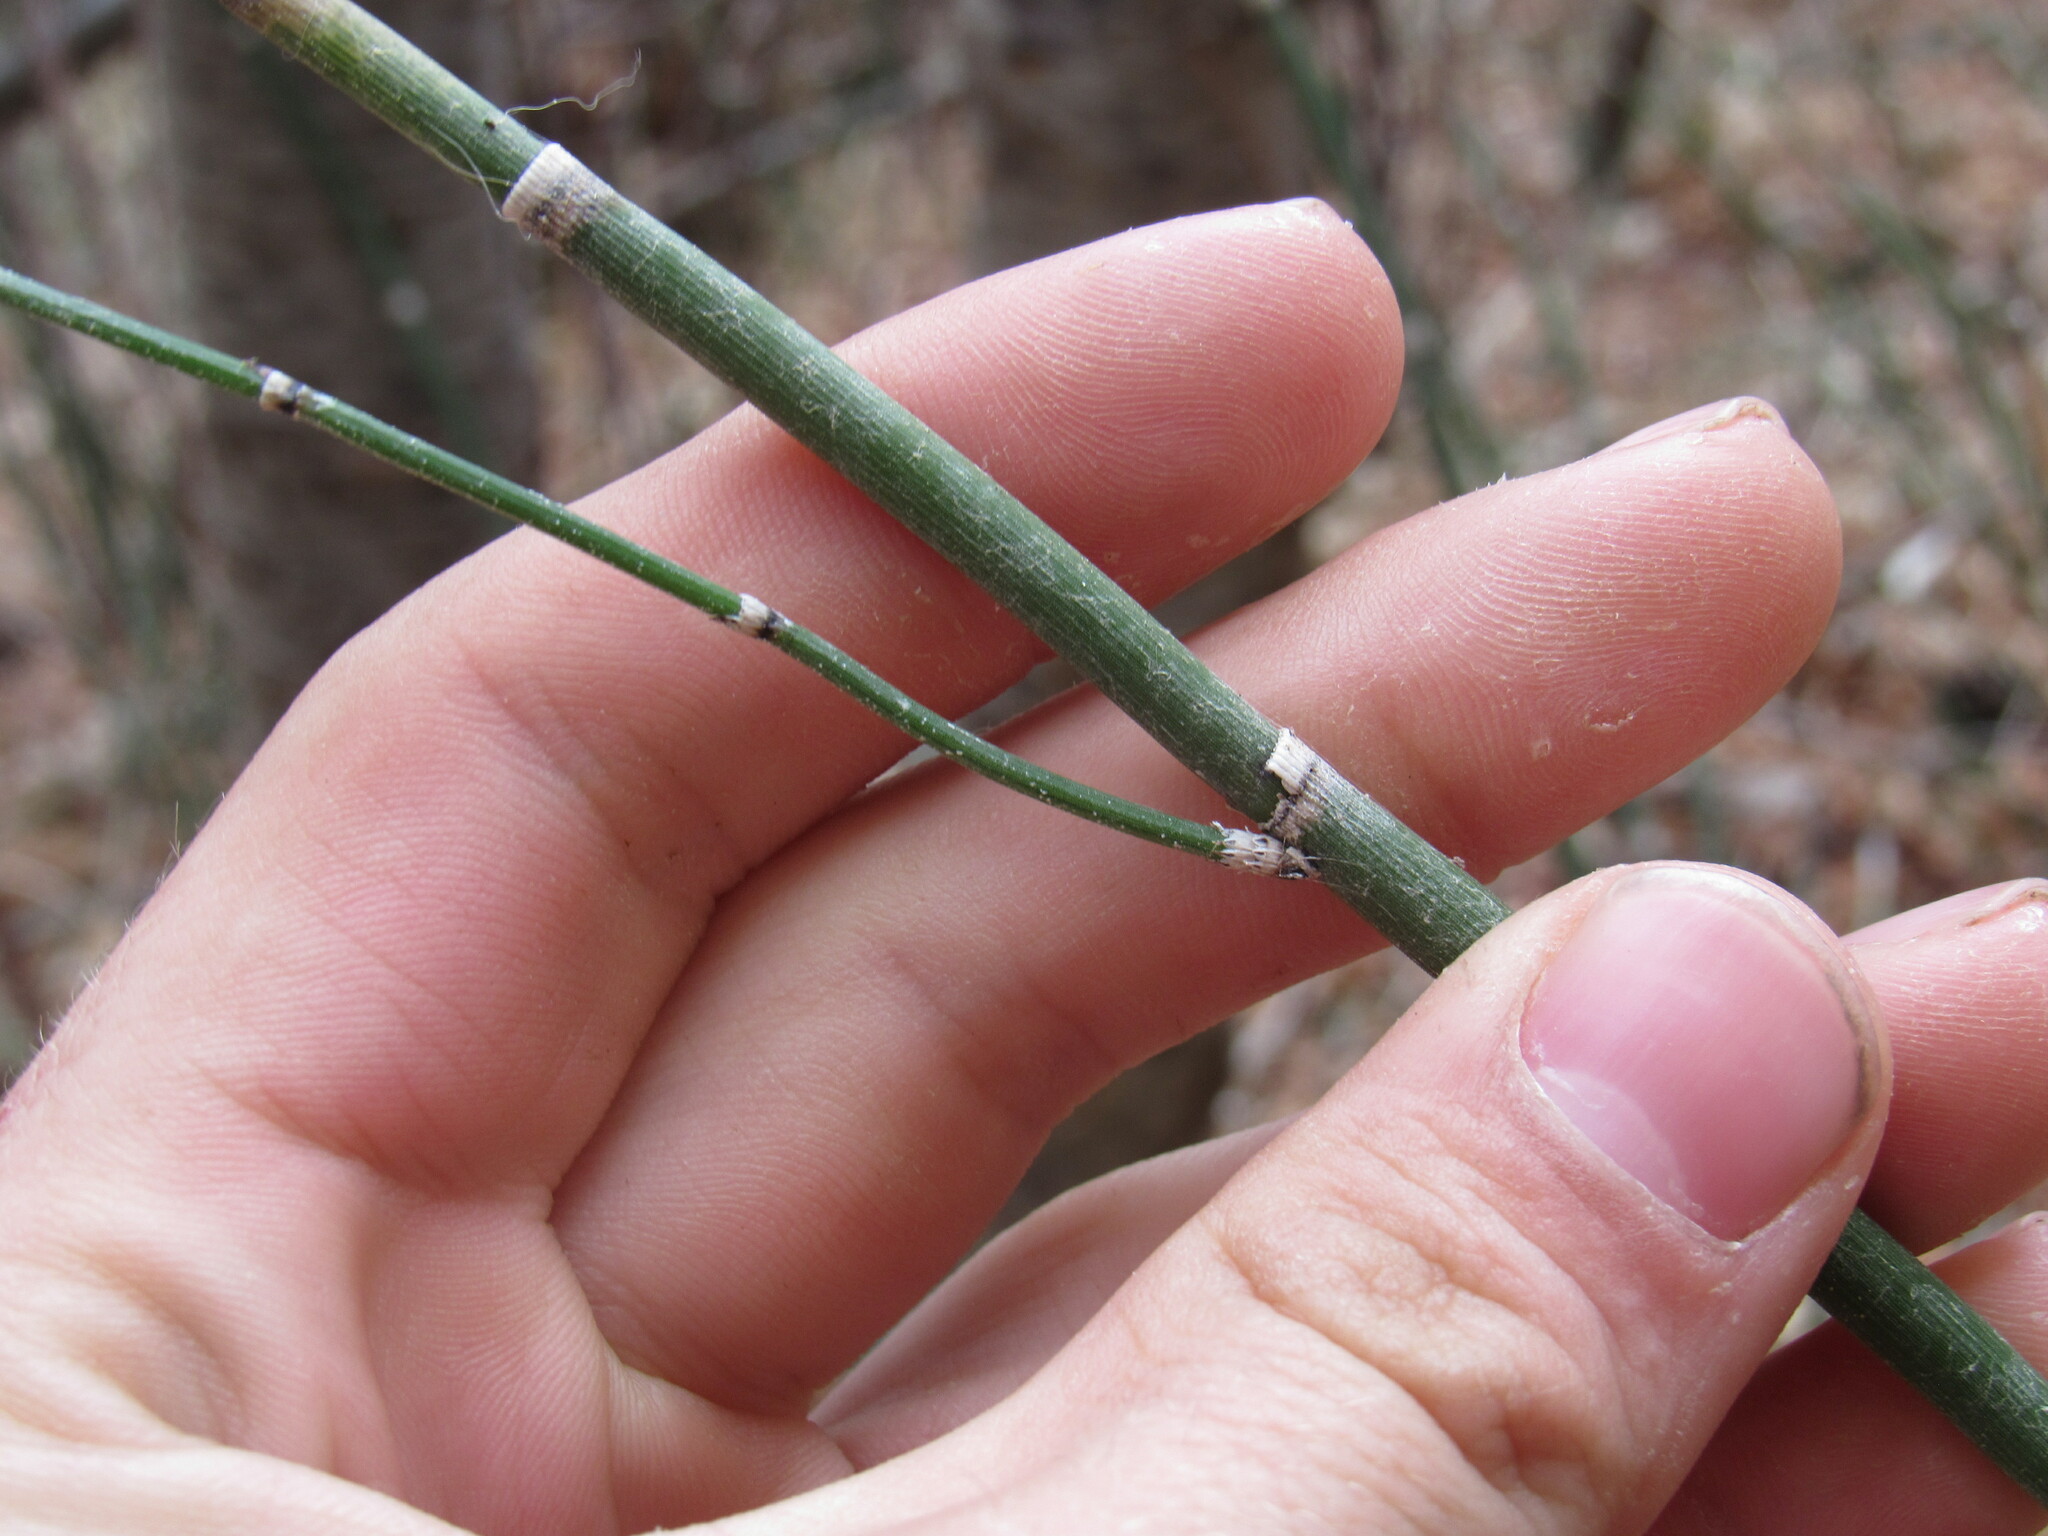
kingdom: Plantae
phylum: Tracheophyta
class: Polypodiopsida
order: Equisetales
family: Equisetaceae
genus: Equisetum
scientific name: Equisetum hyemale
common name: Rough horsetail
